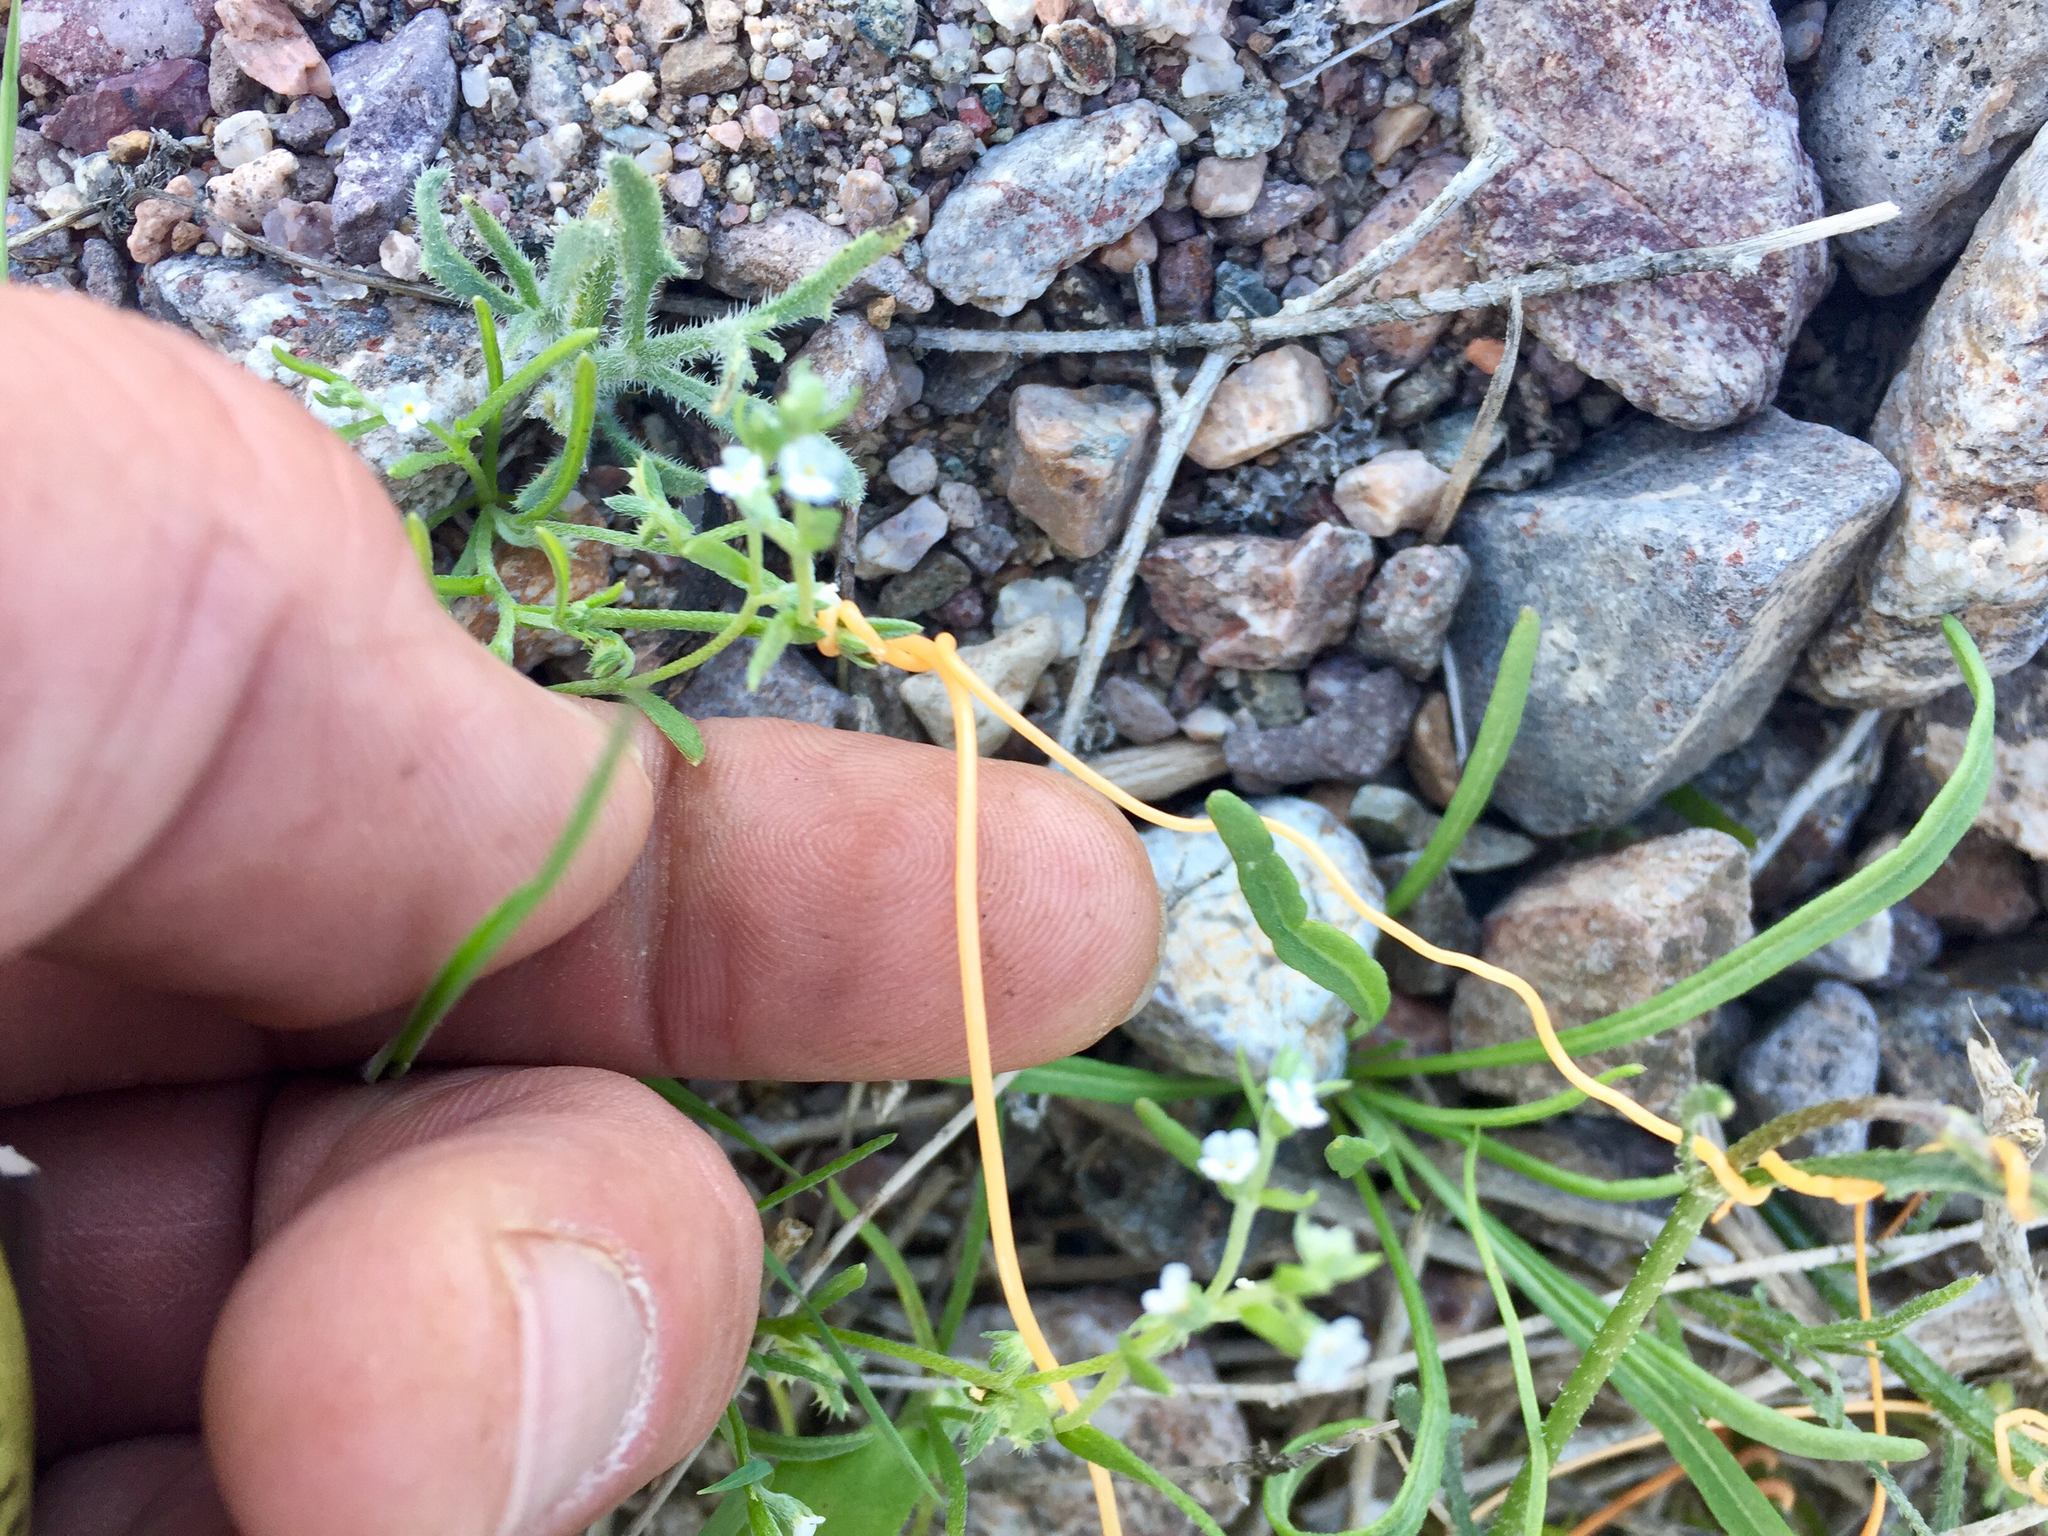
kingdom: Plantae
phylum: Tracheophyta
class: Magnoliopsida
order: Solanales
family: Convolvulaceae
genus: Cuscuta
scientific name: Cuscuta denticulata
